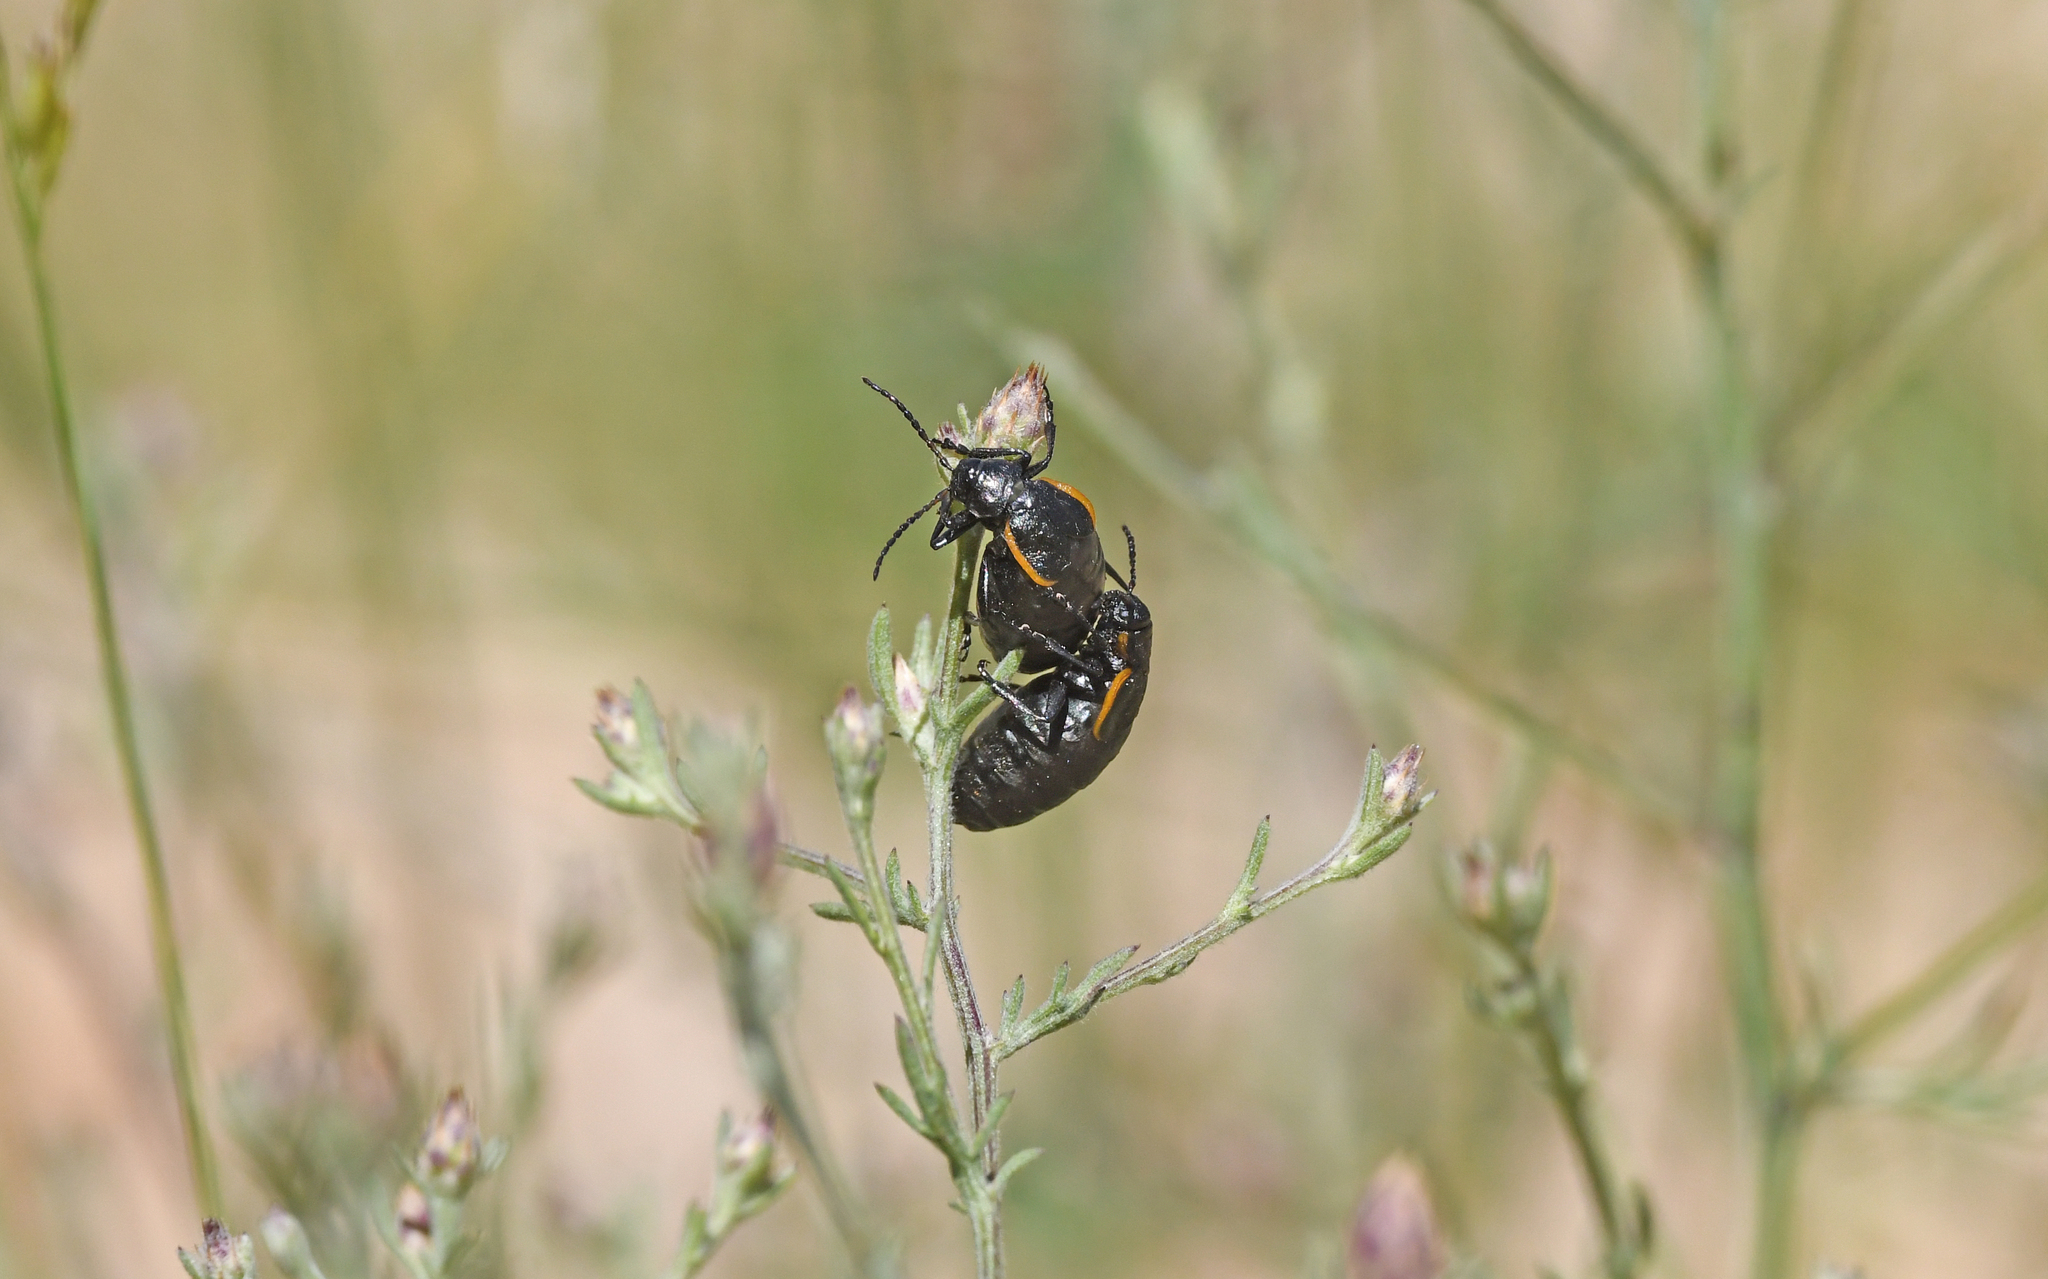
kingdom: Animalia
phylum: Arthropoda
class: Insecta
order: Coleoptera
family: Chrysomelidae
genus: Arima
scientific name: Arima marginata
